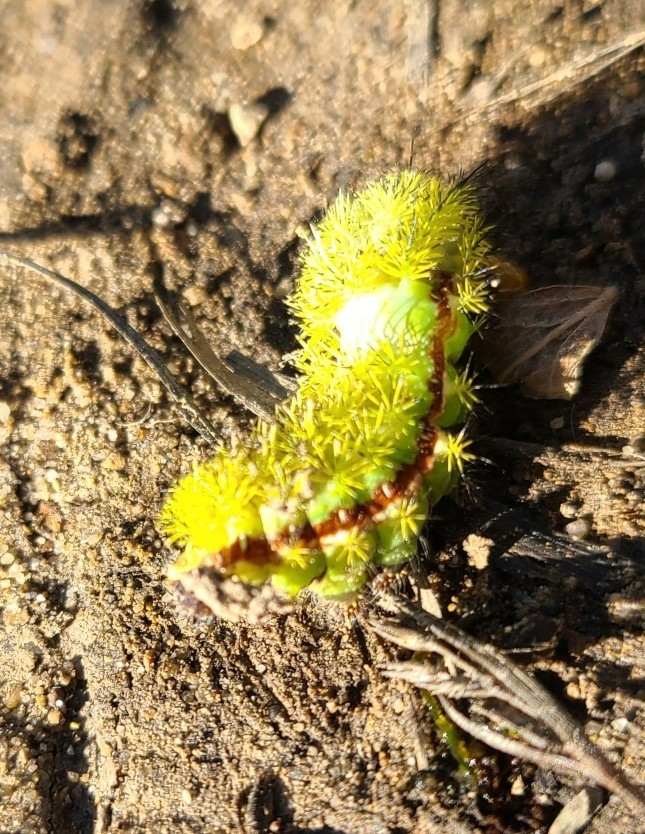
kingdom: Animalia
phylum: Arthropoda
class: Insecta
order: Lepidoptera
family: Saturniidae
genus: Automeris
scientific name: Automeris io
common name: Io moth
